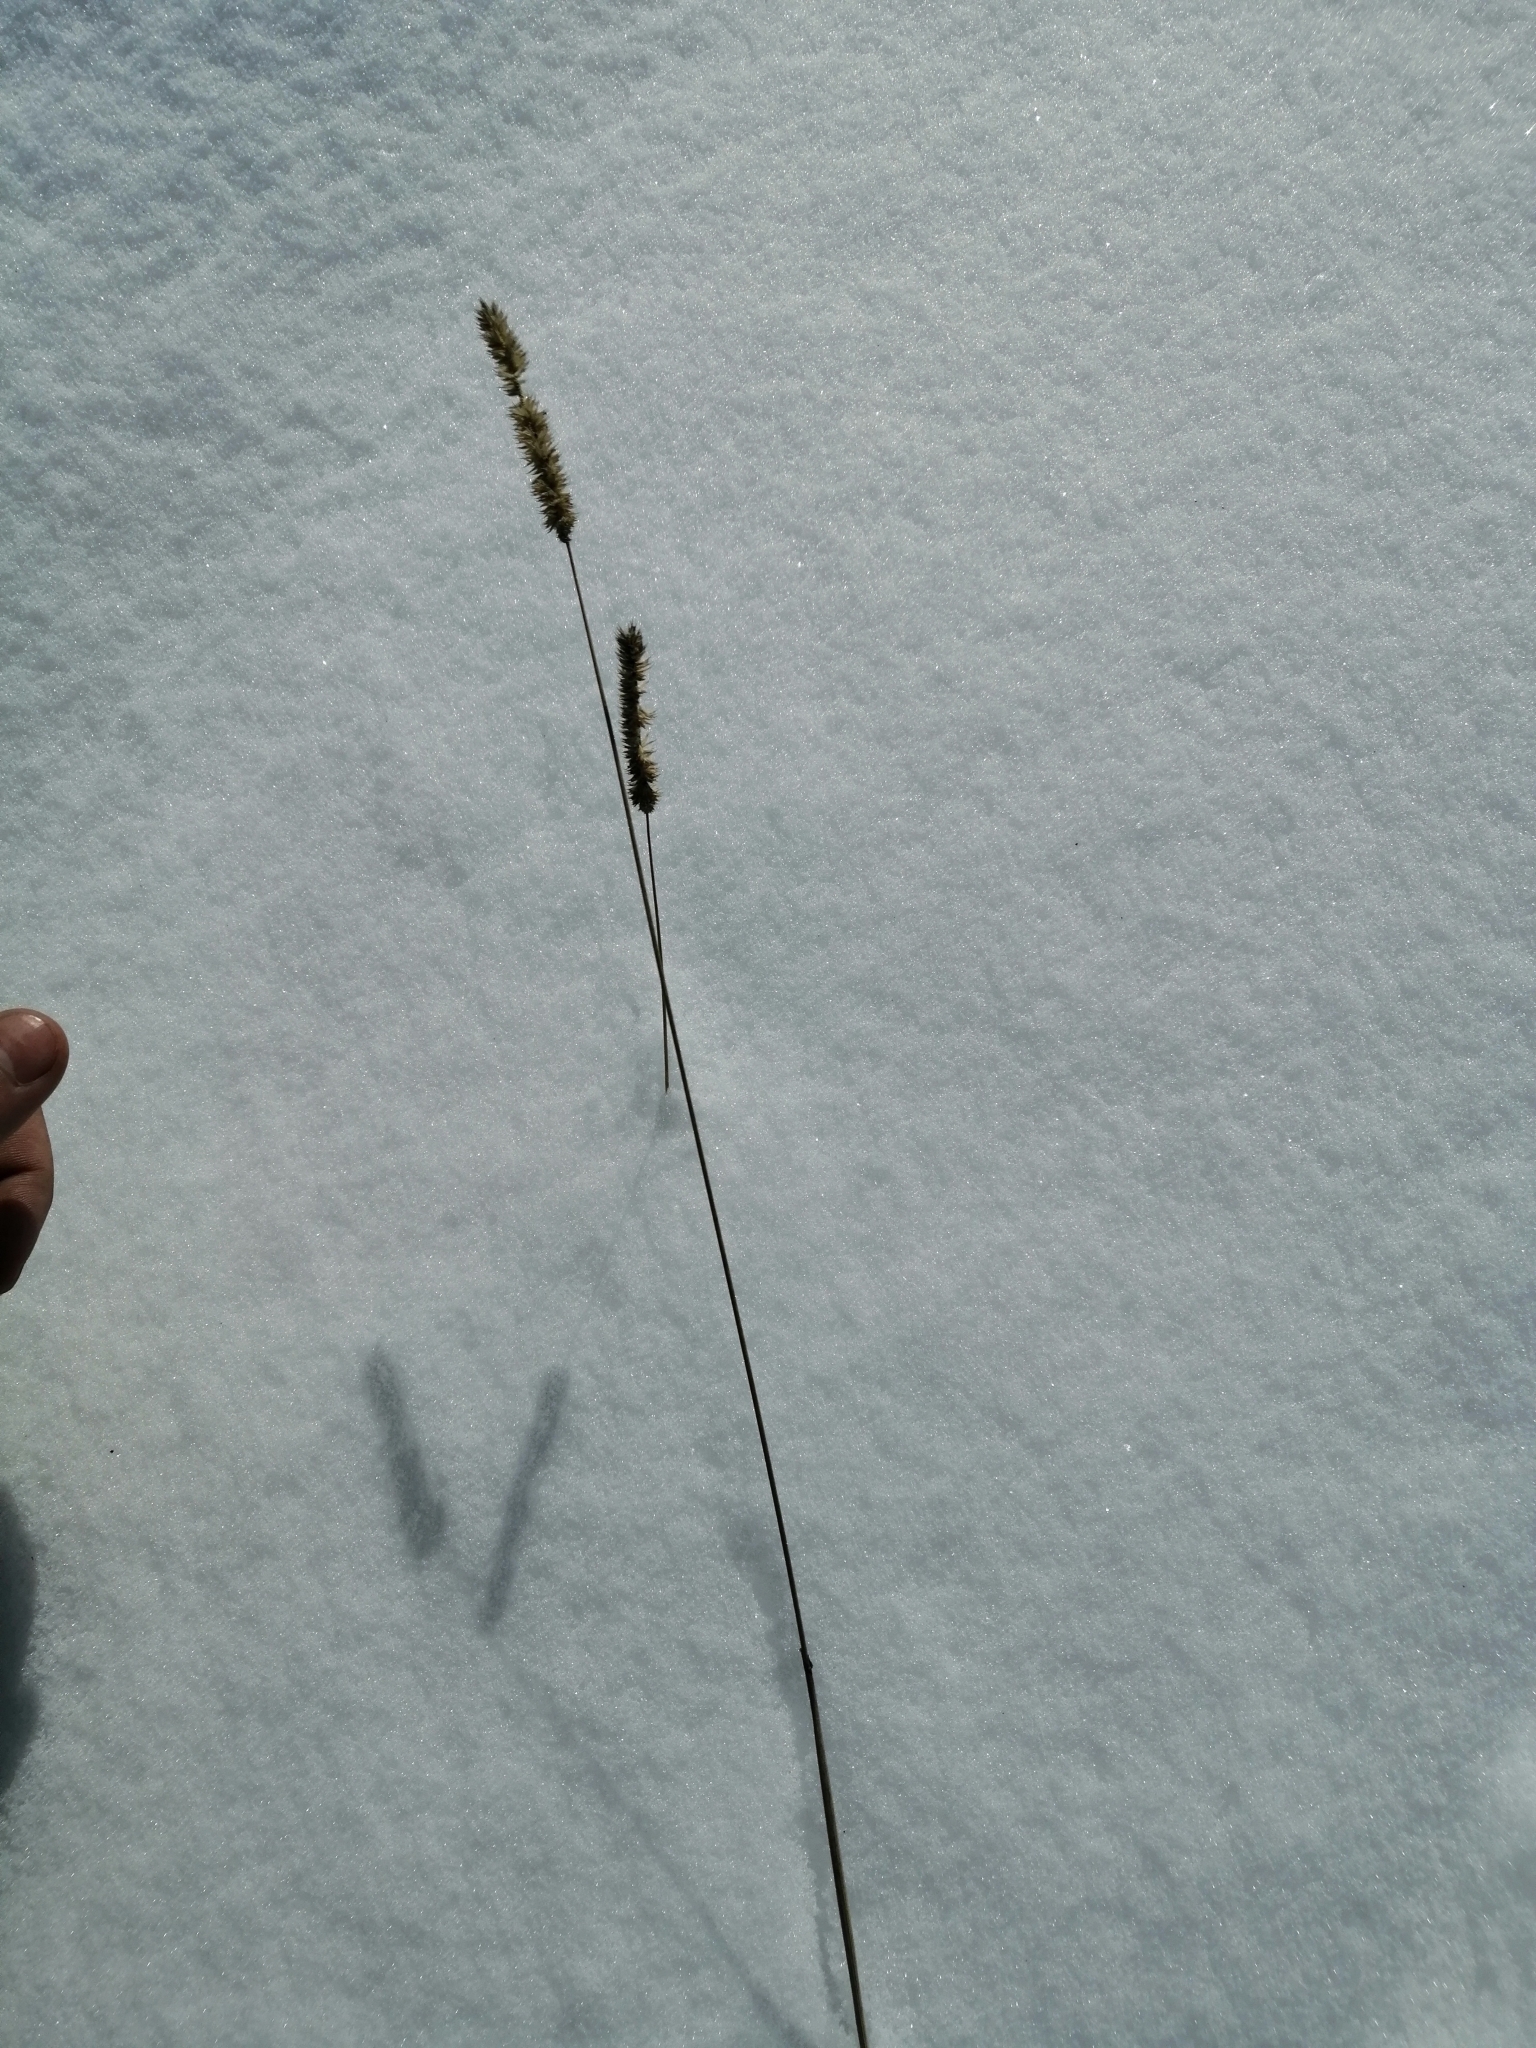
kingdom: Plantae
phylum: Tracheophyta
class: Liliopsida
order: Poales
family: Poaceae
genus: Phleum
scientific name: Phleum pratense
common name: Timothy grass
